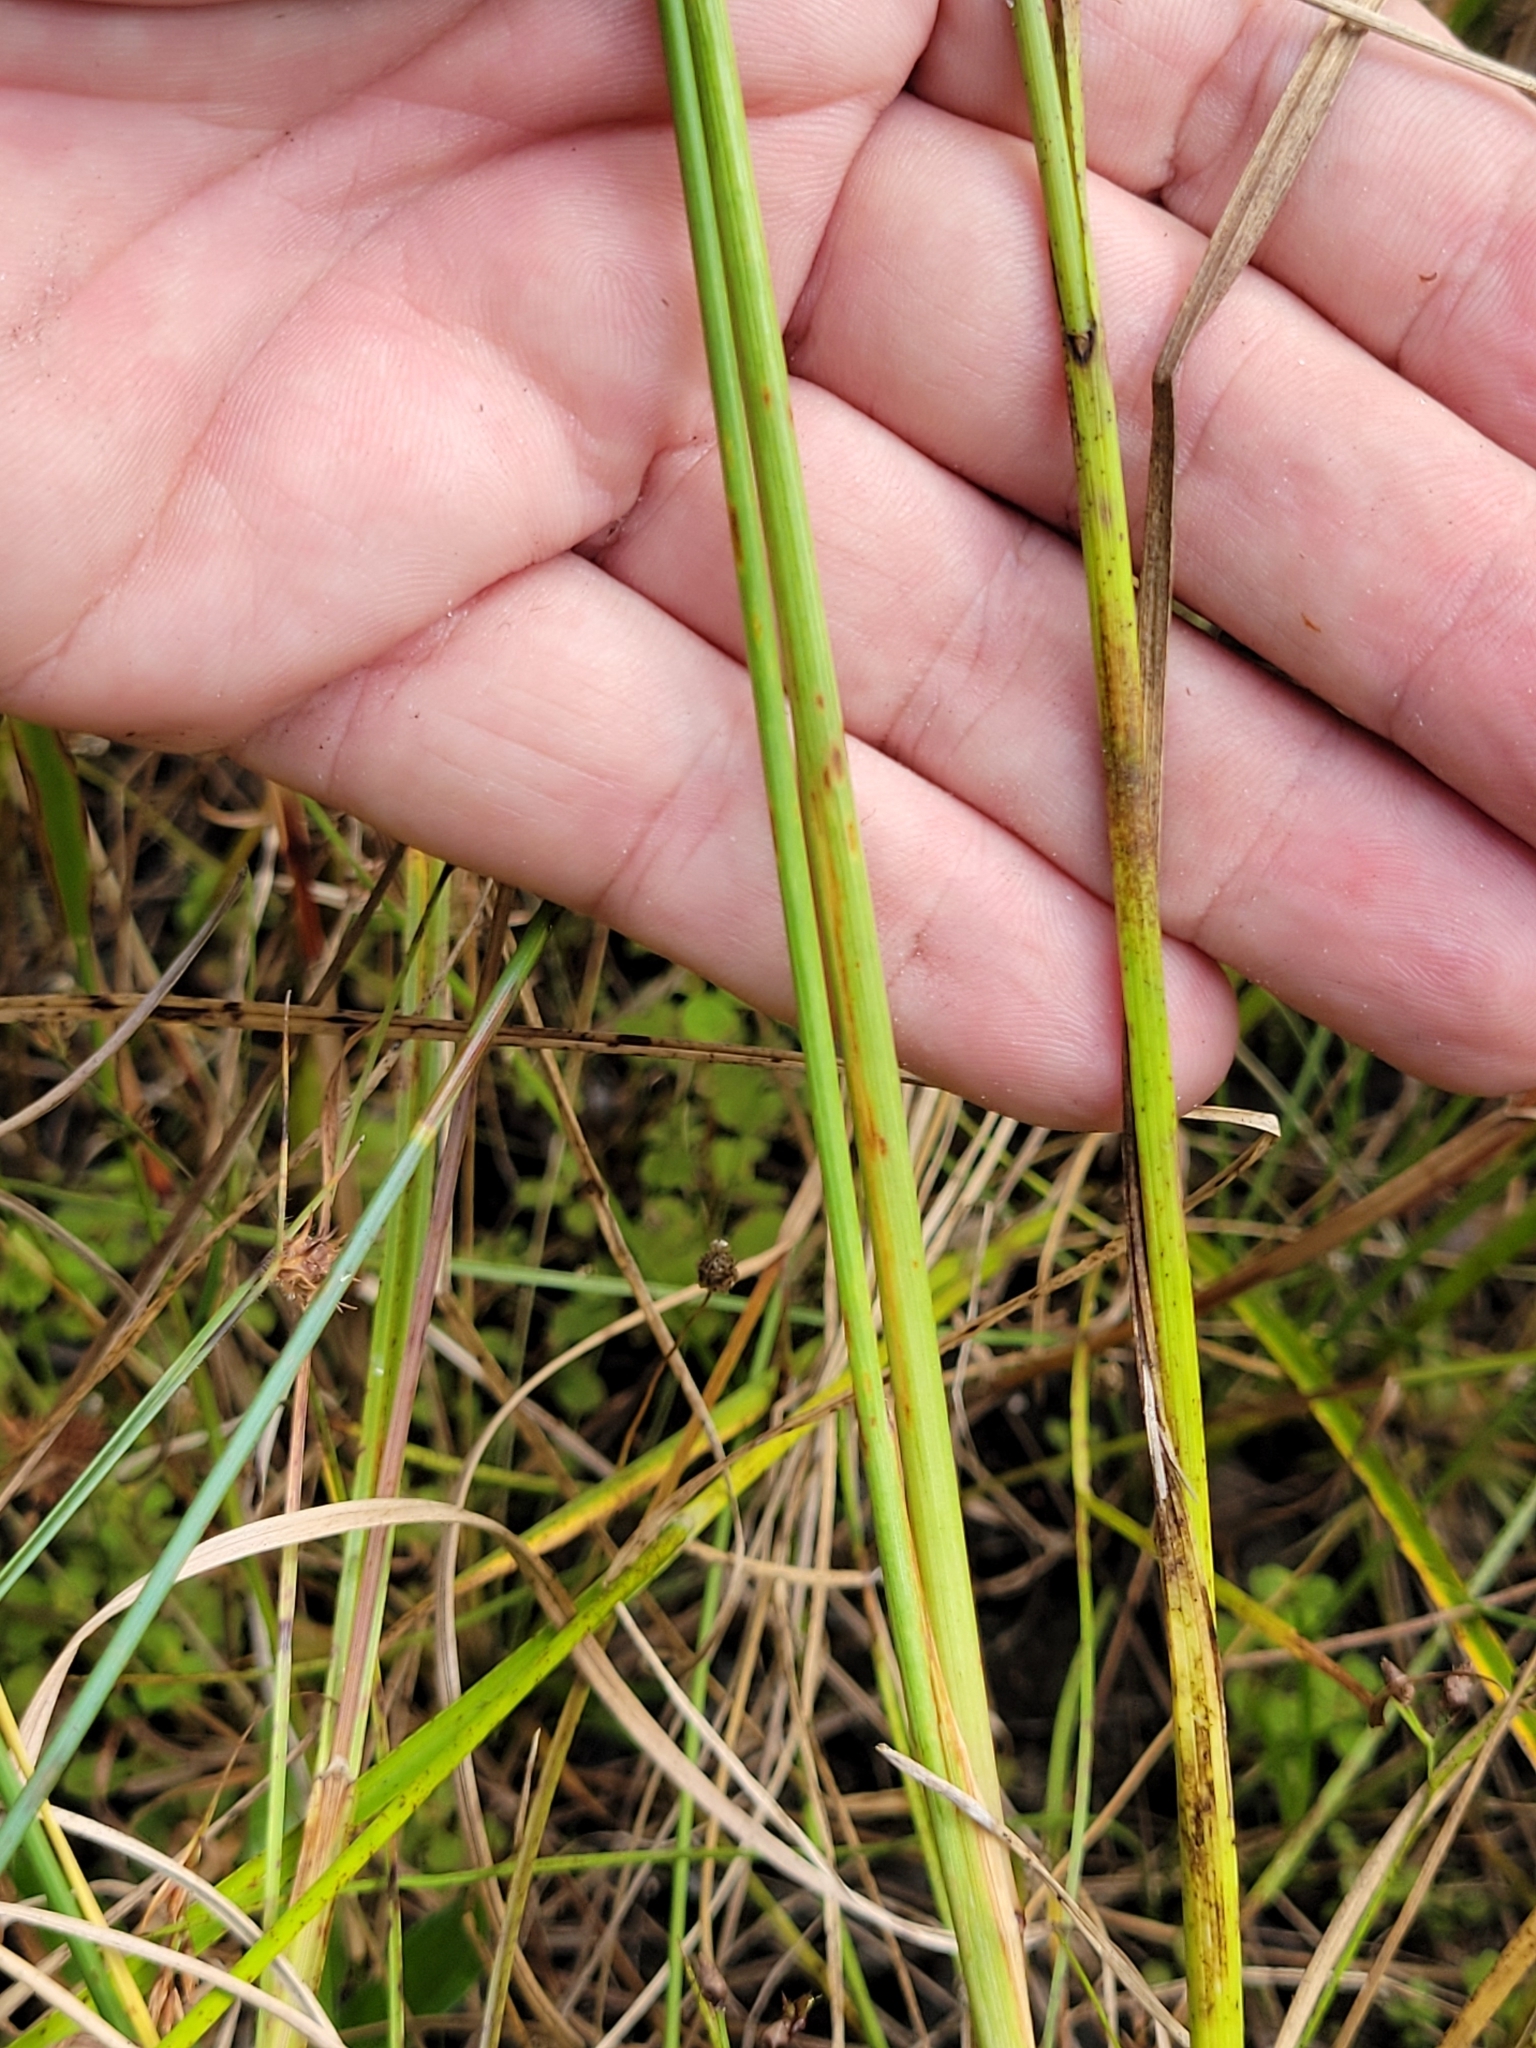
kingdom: Plantae
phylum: Tracheophyta
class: Liliopsida
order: Poales
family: Poaceae
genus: Paspalum
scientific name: Paspalum monostachyum
